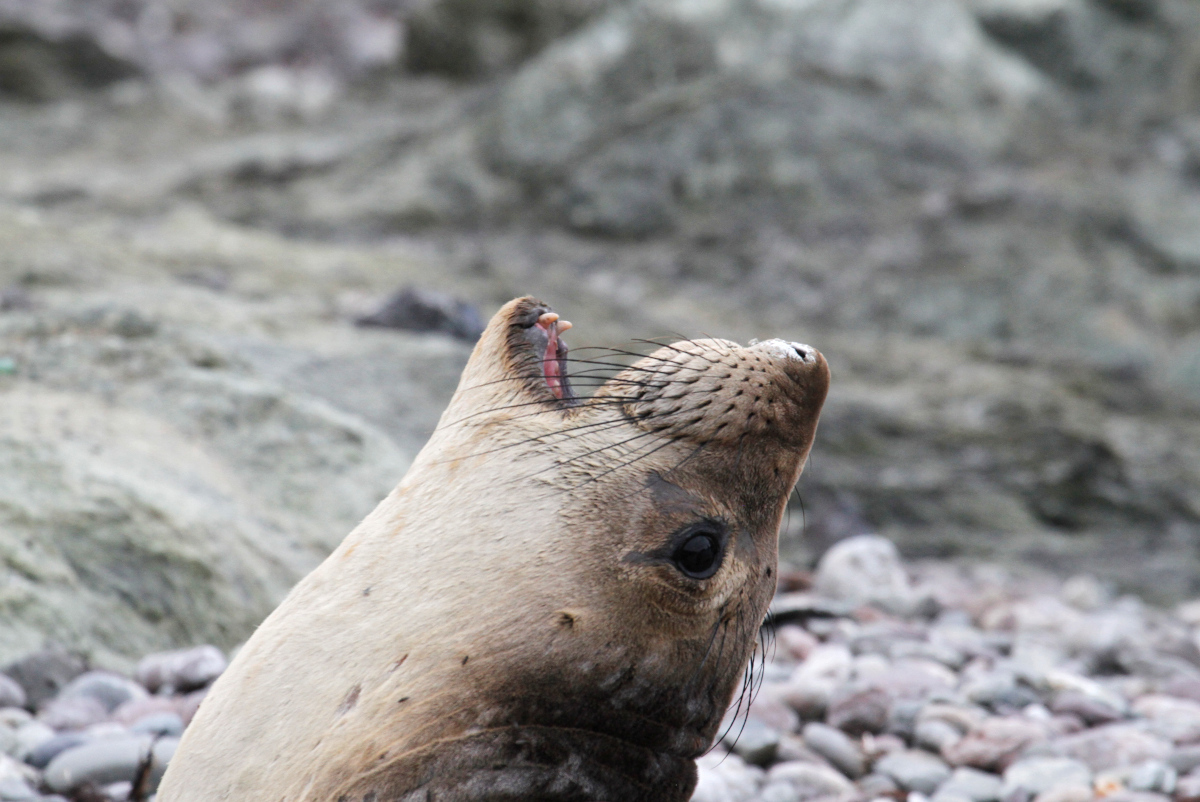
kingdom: Animalia
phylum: Chordata
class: Mammalia
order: Carnivora
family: Phocidae
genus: Mirounga
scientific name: Mirounga angustirostris
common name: Northern elephant seal
